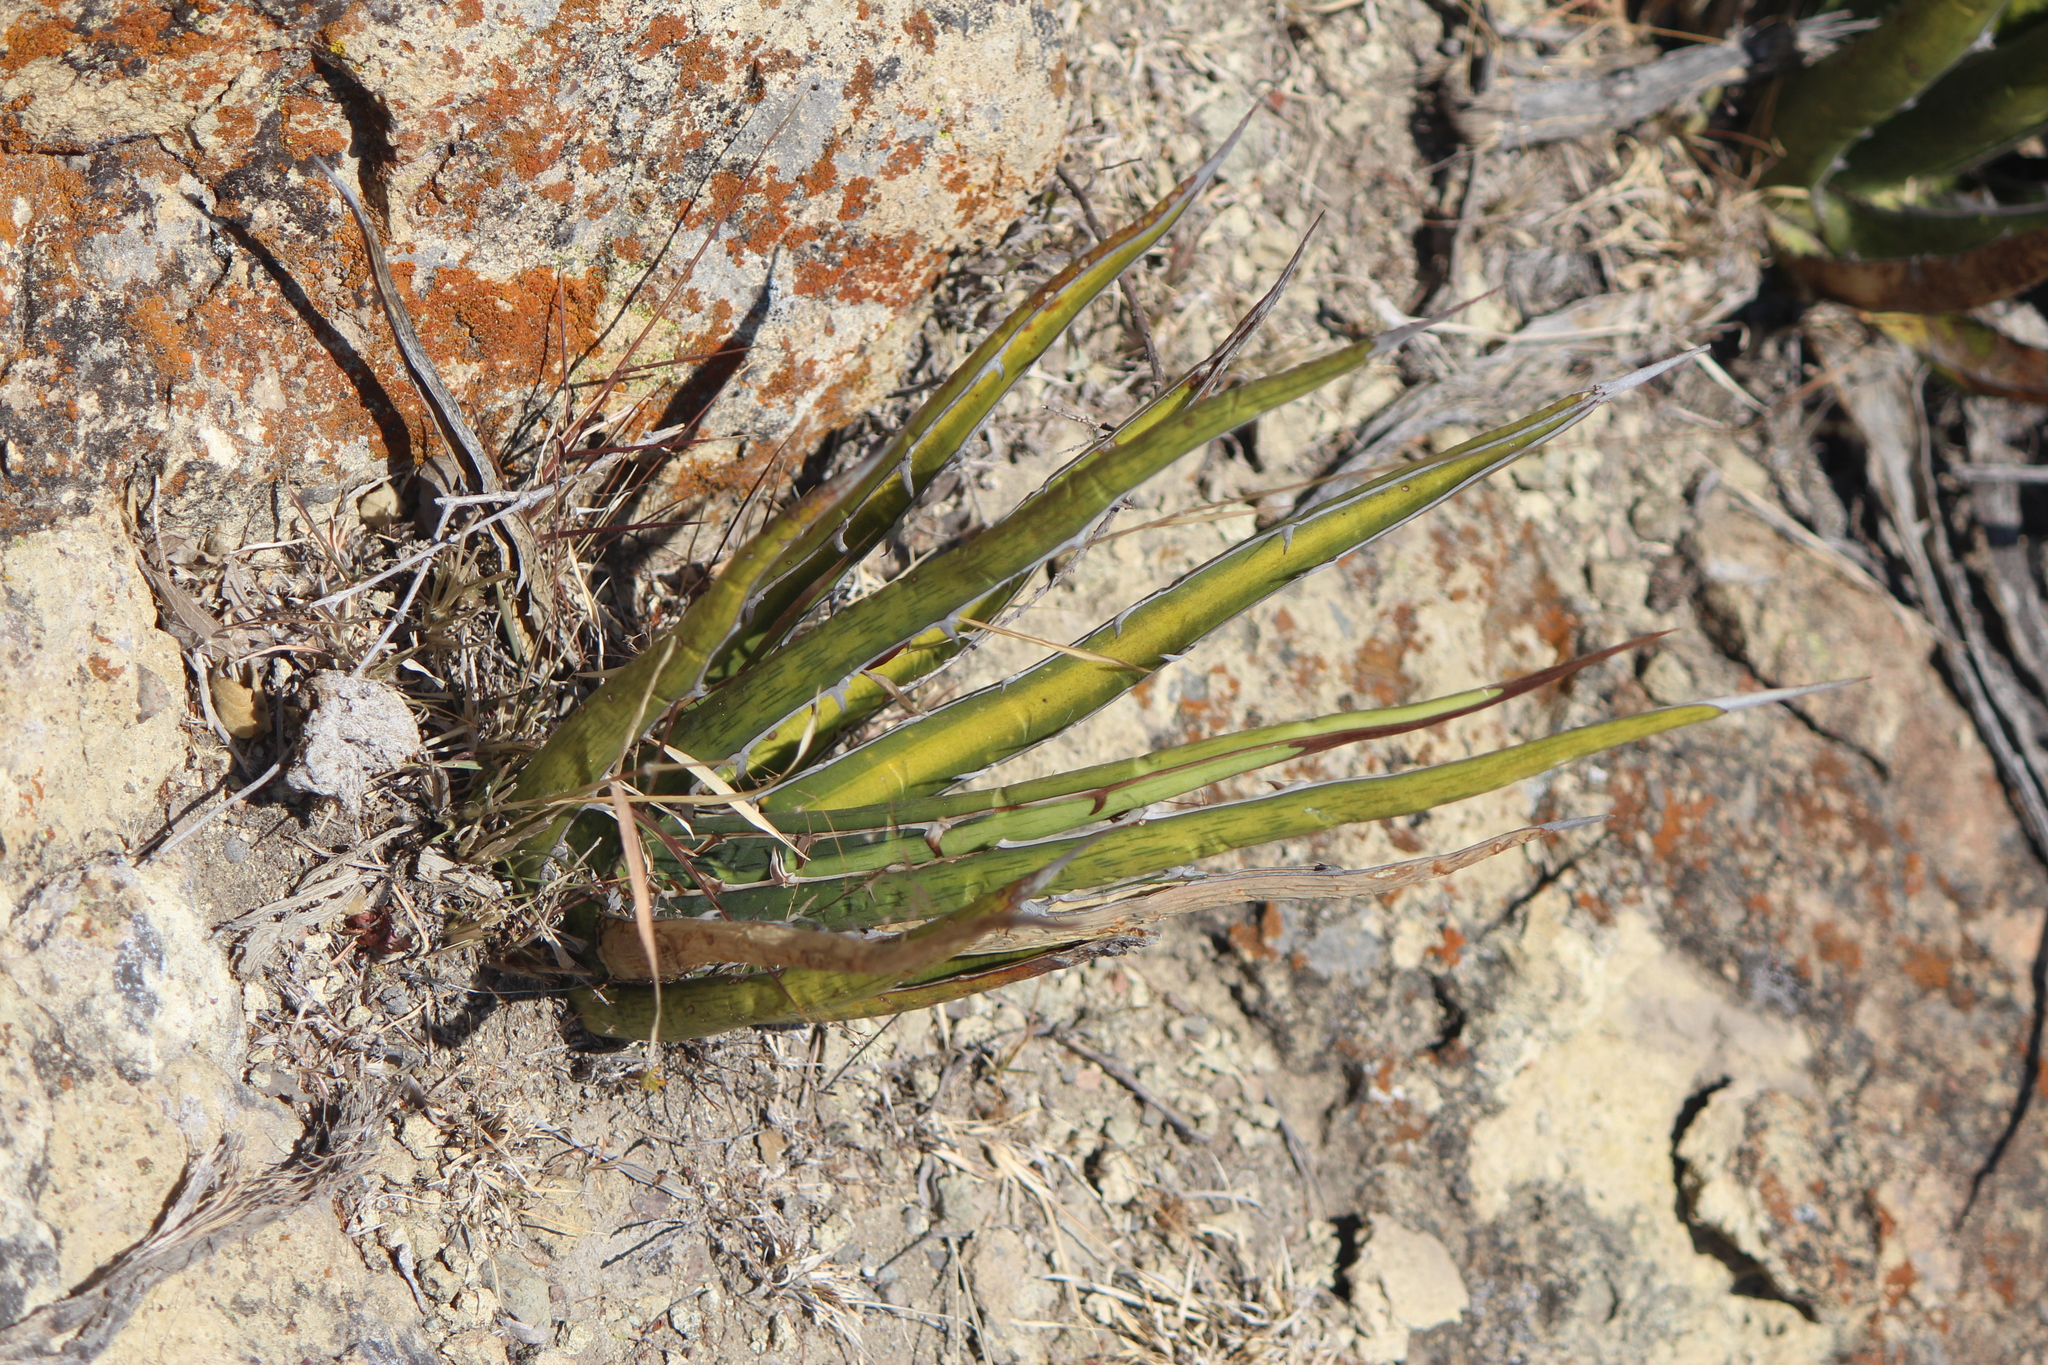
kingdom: Plantae
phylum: Tracheophyta
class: Liliopsida
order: Asparagales
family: Asparagaceae
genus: Agave
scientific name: Agave lechuguilla
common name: Lecheguilla agave
